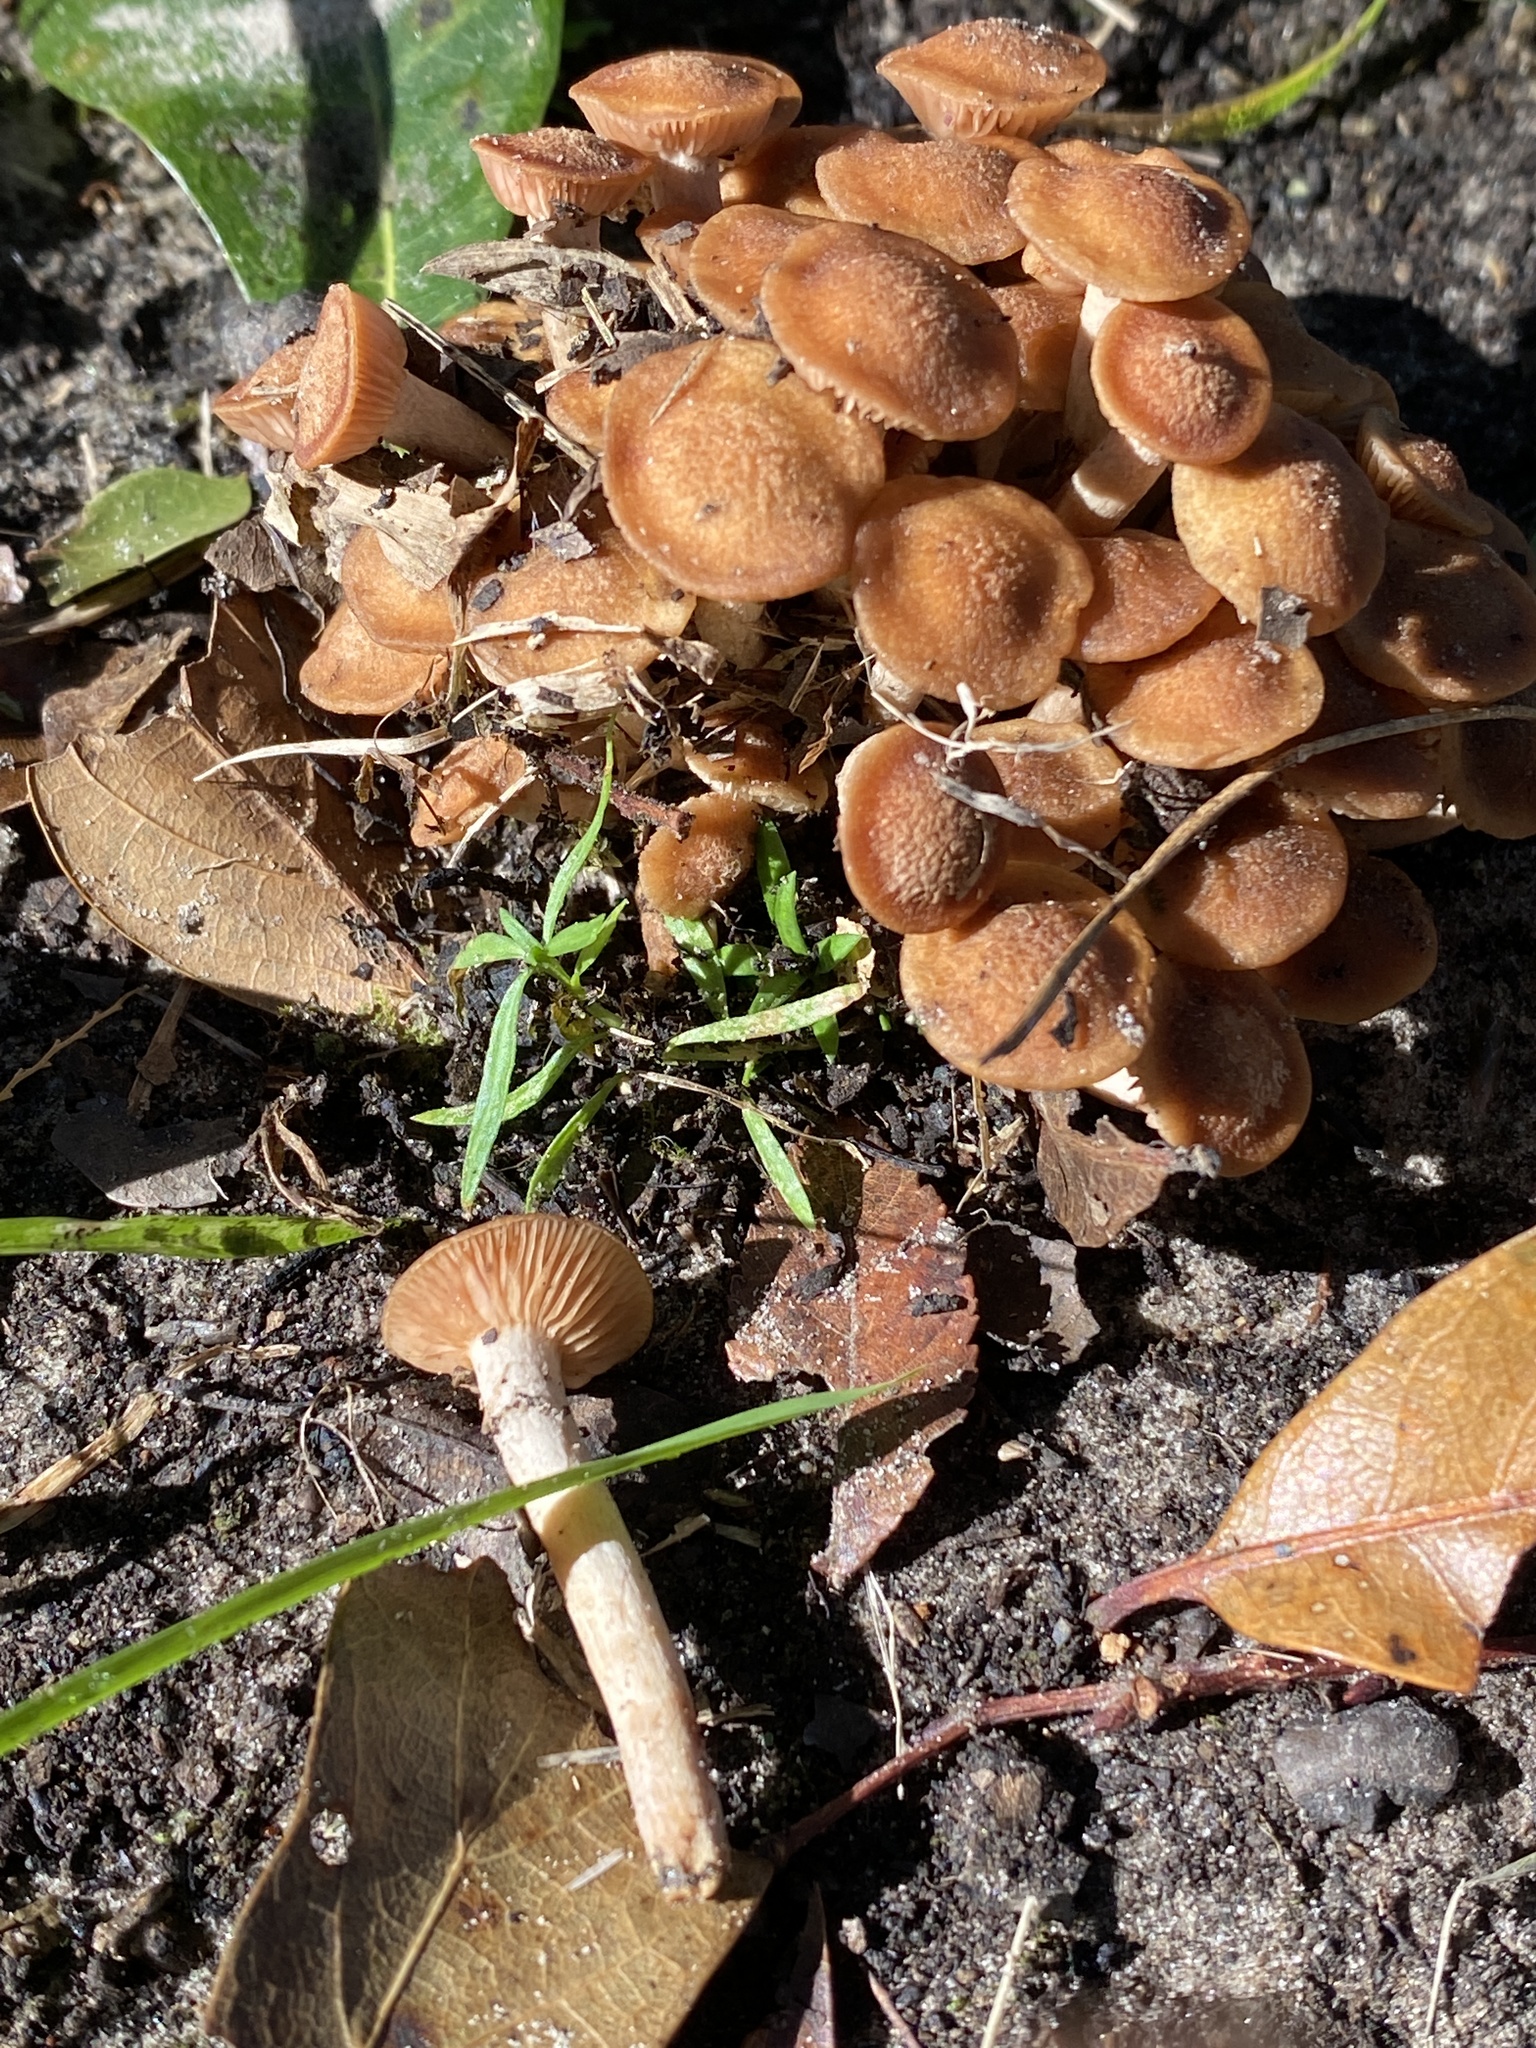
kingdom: Fungi
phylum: Basidiomycota
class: Agaricomycetes
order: Agaricales
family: Physalacriaceae
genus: Desarmillaria
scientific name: Desarmillaria caespitosa
